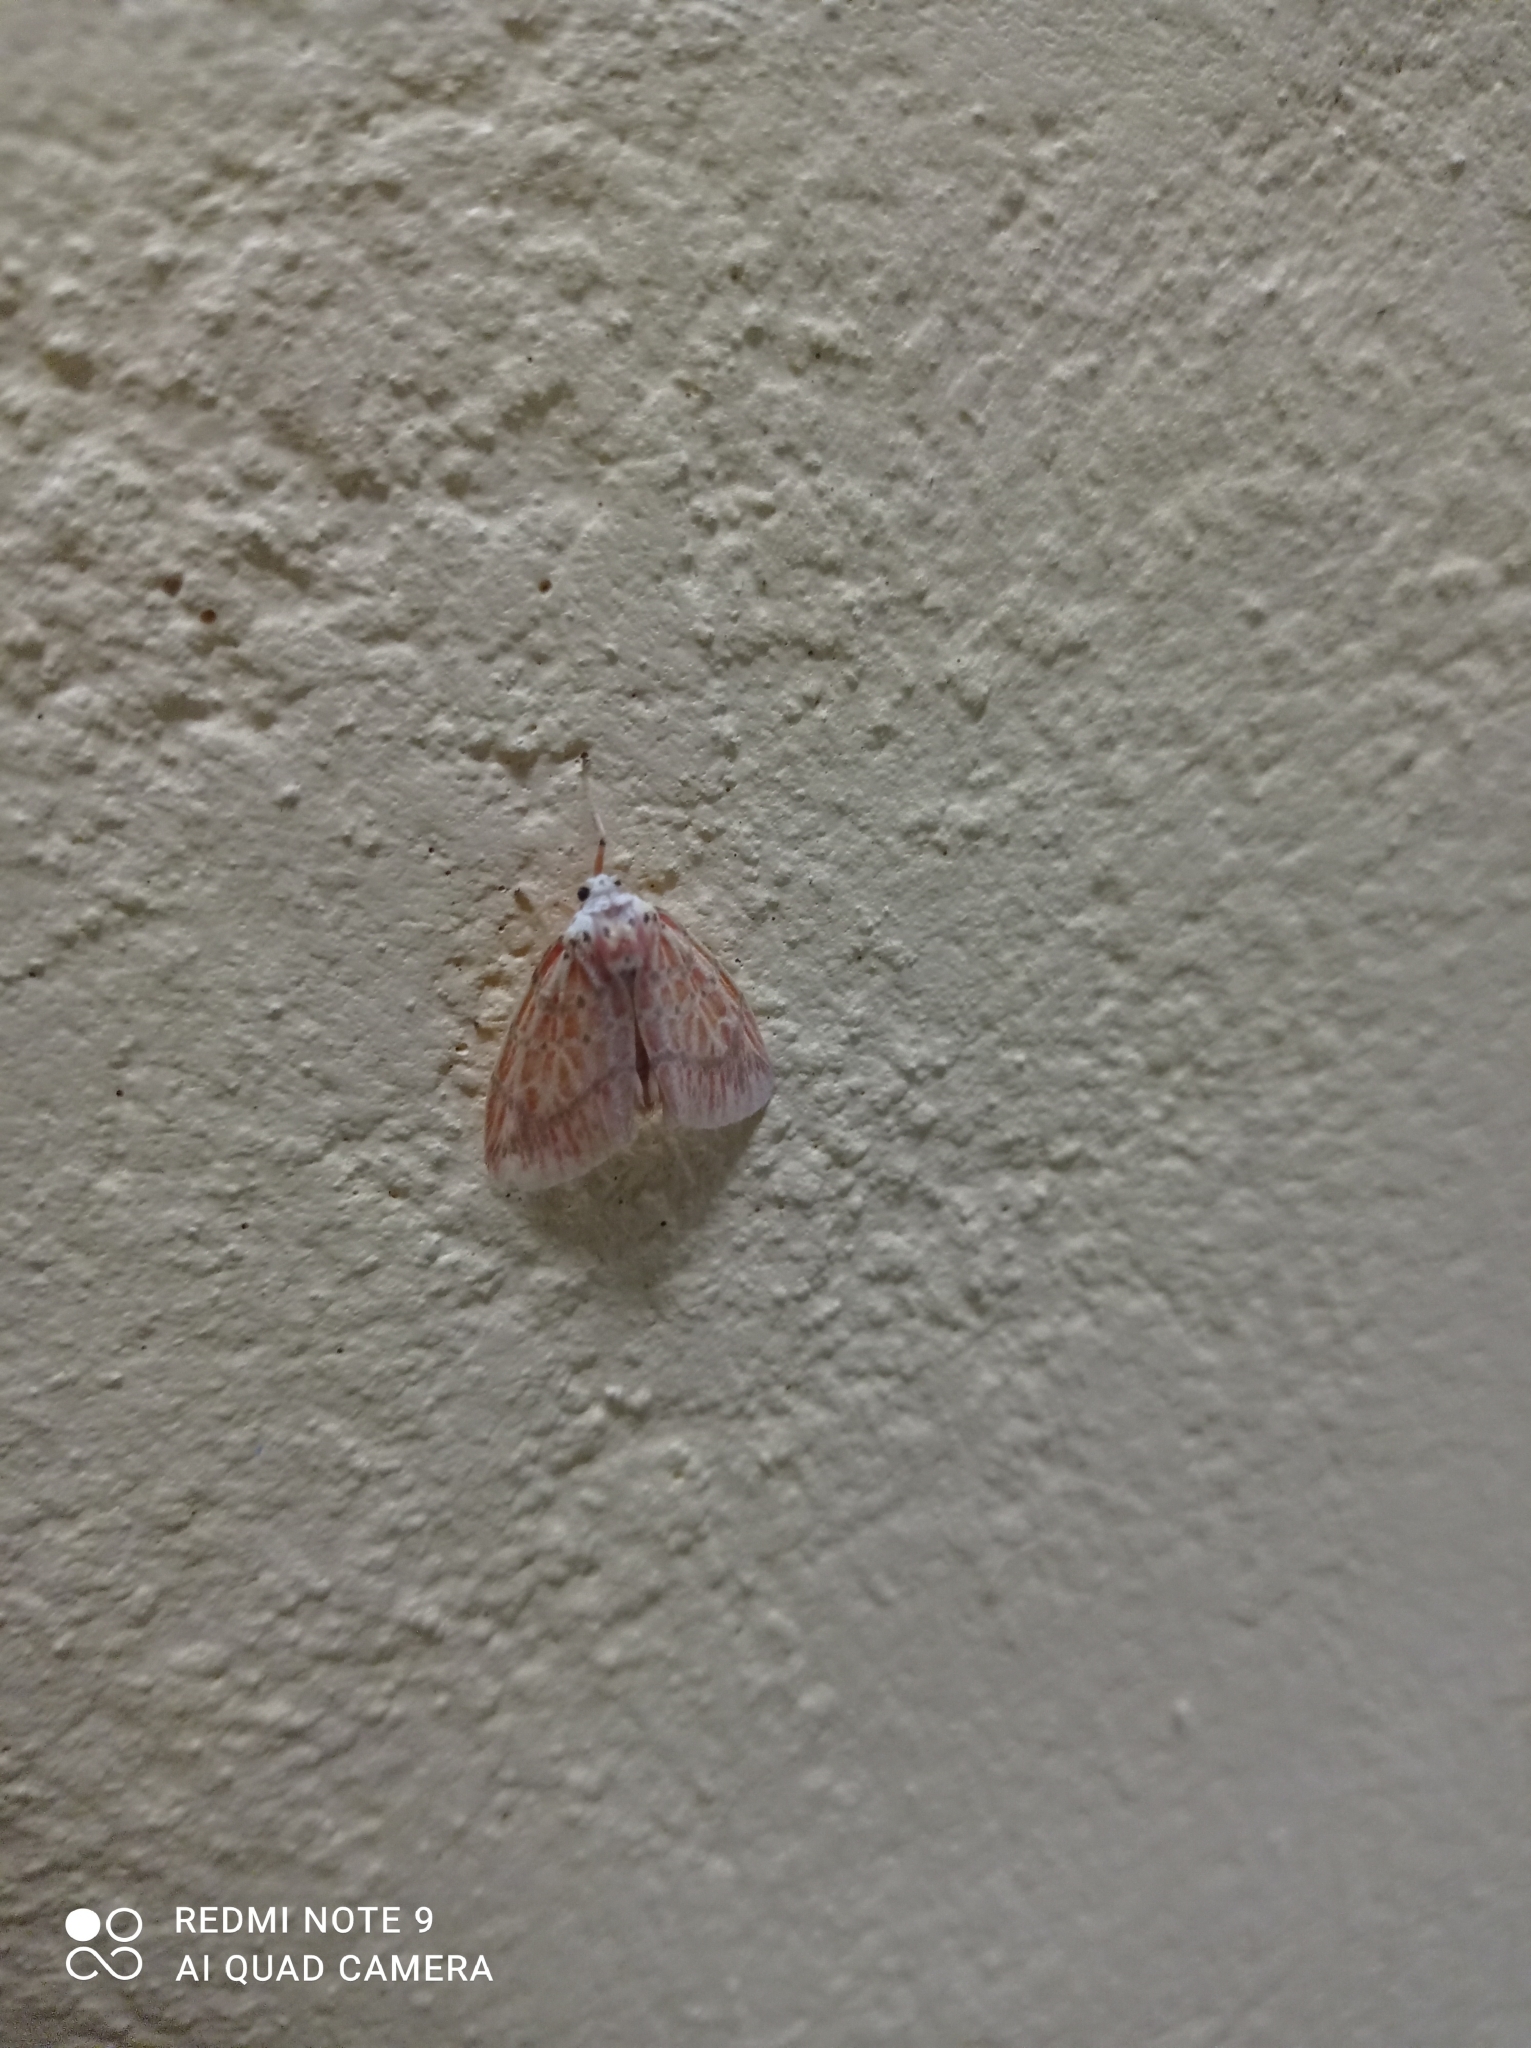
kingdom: Animalia
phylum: Arthropoda
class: Insecta
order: Lepidoptera
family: Erebidae
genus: Barsine
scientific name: Barsine striata
